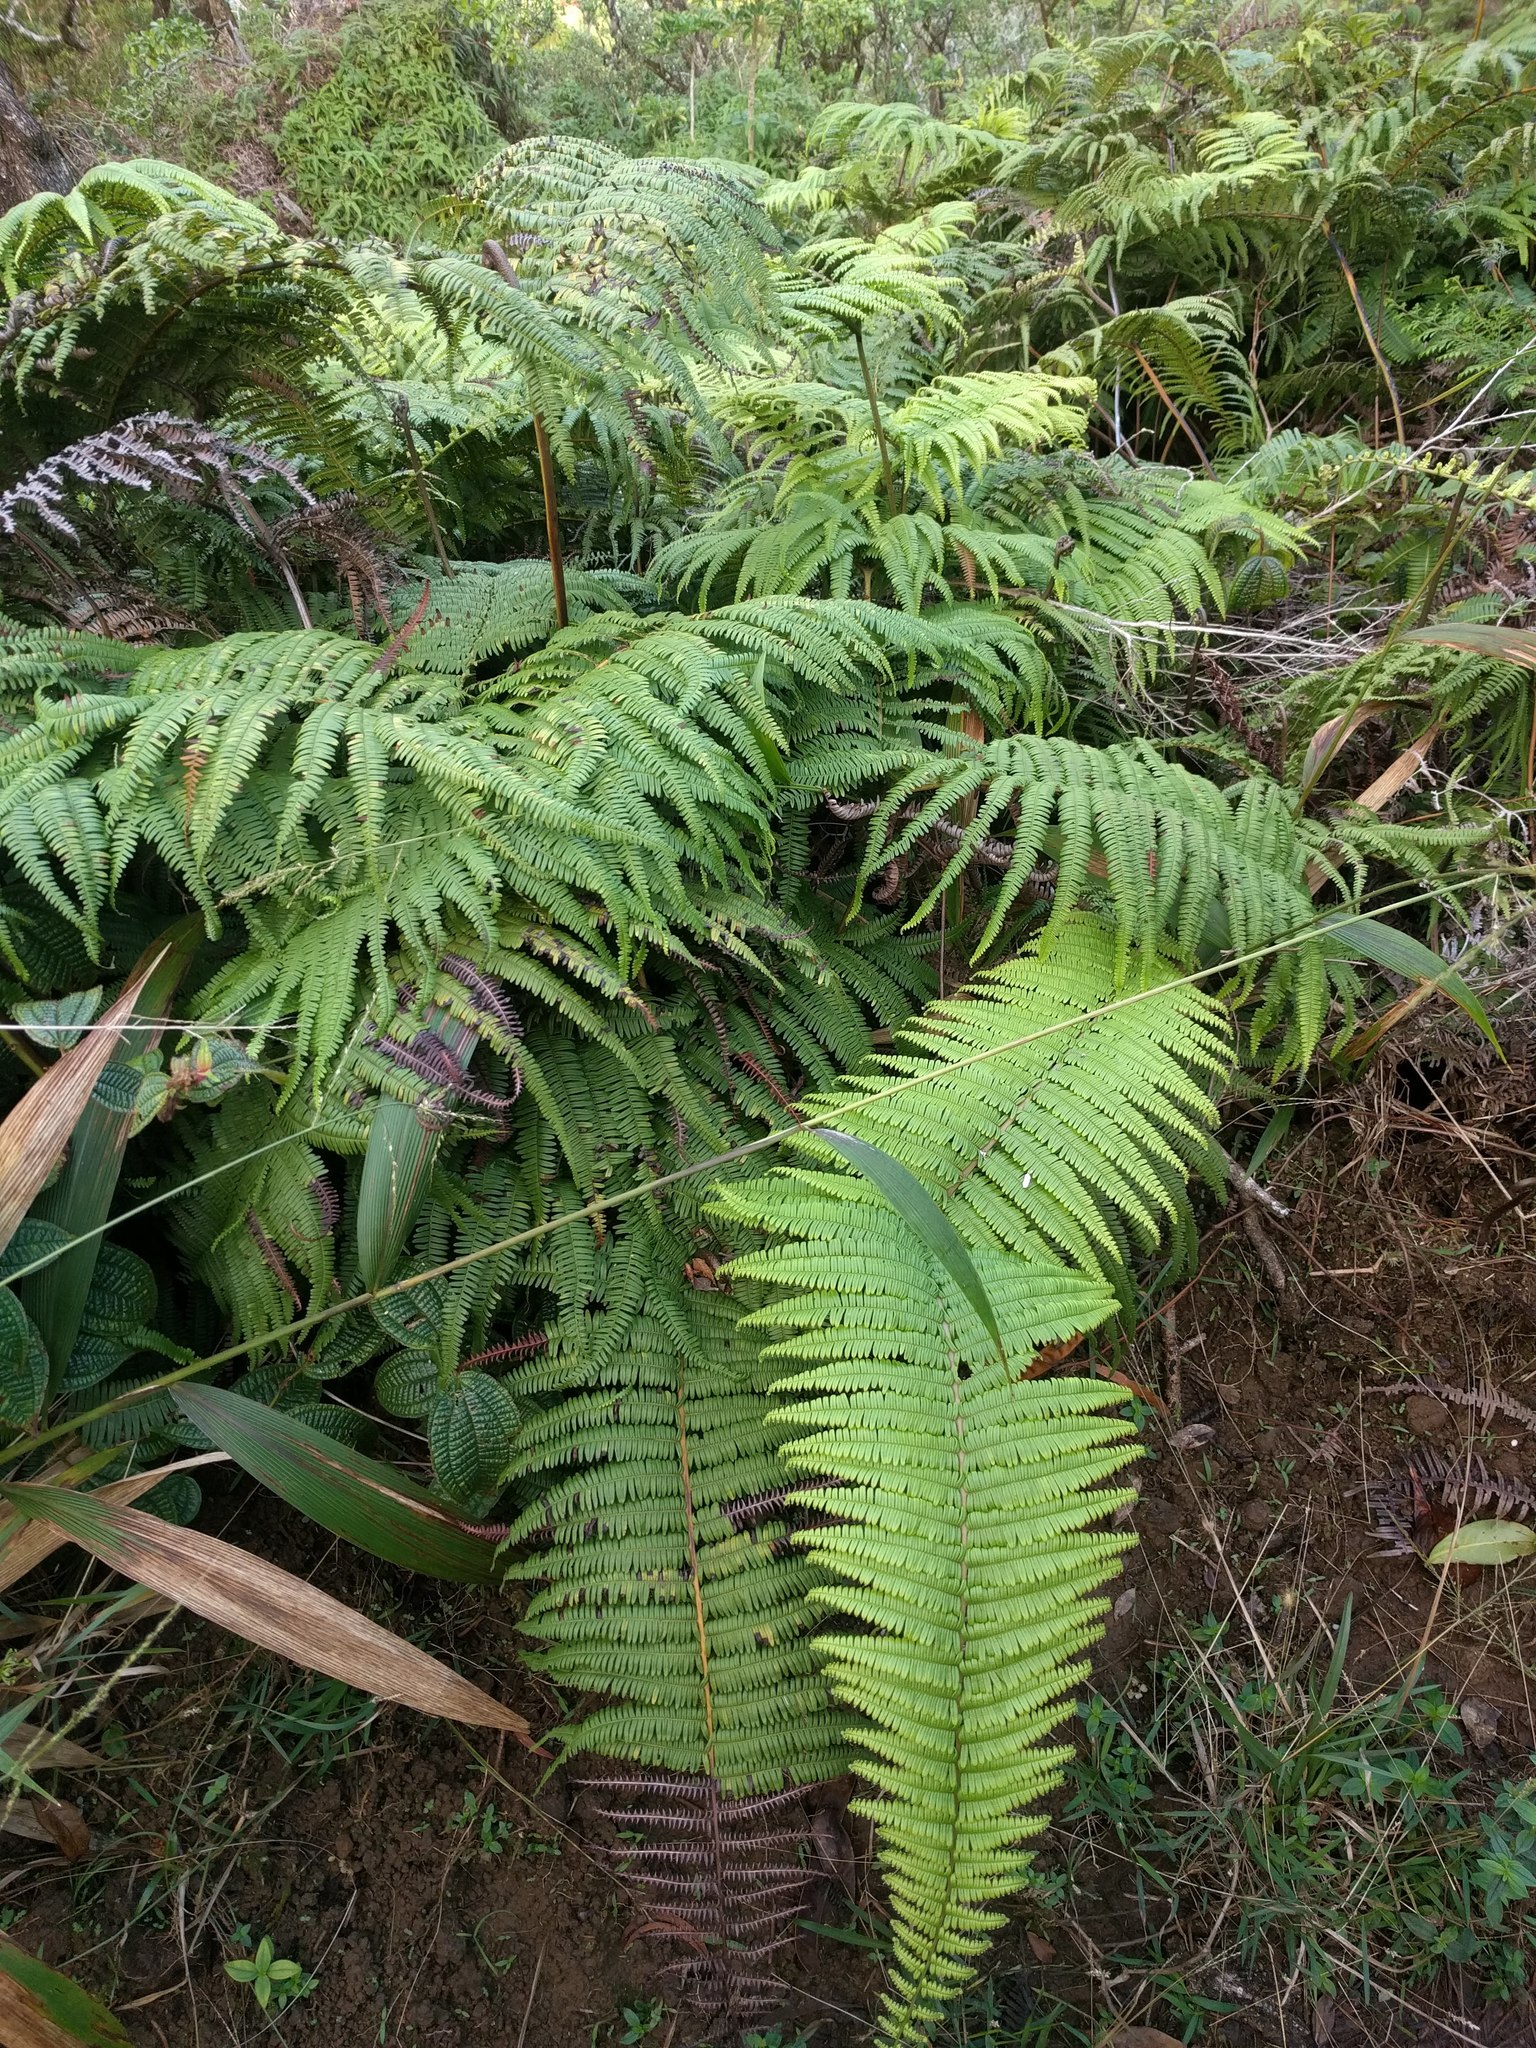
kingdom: Plantae
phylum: Tracheophyta
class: Polypodiopsida
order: Gleicheniales
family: Gleicheniaceae
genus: Diplopterygium
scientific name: Diplopterygium pinnatum
